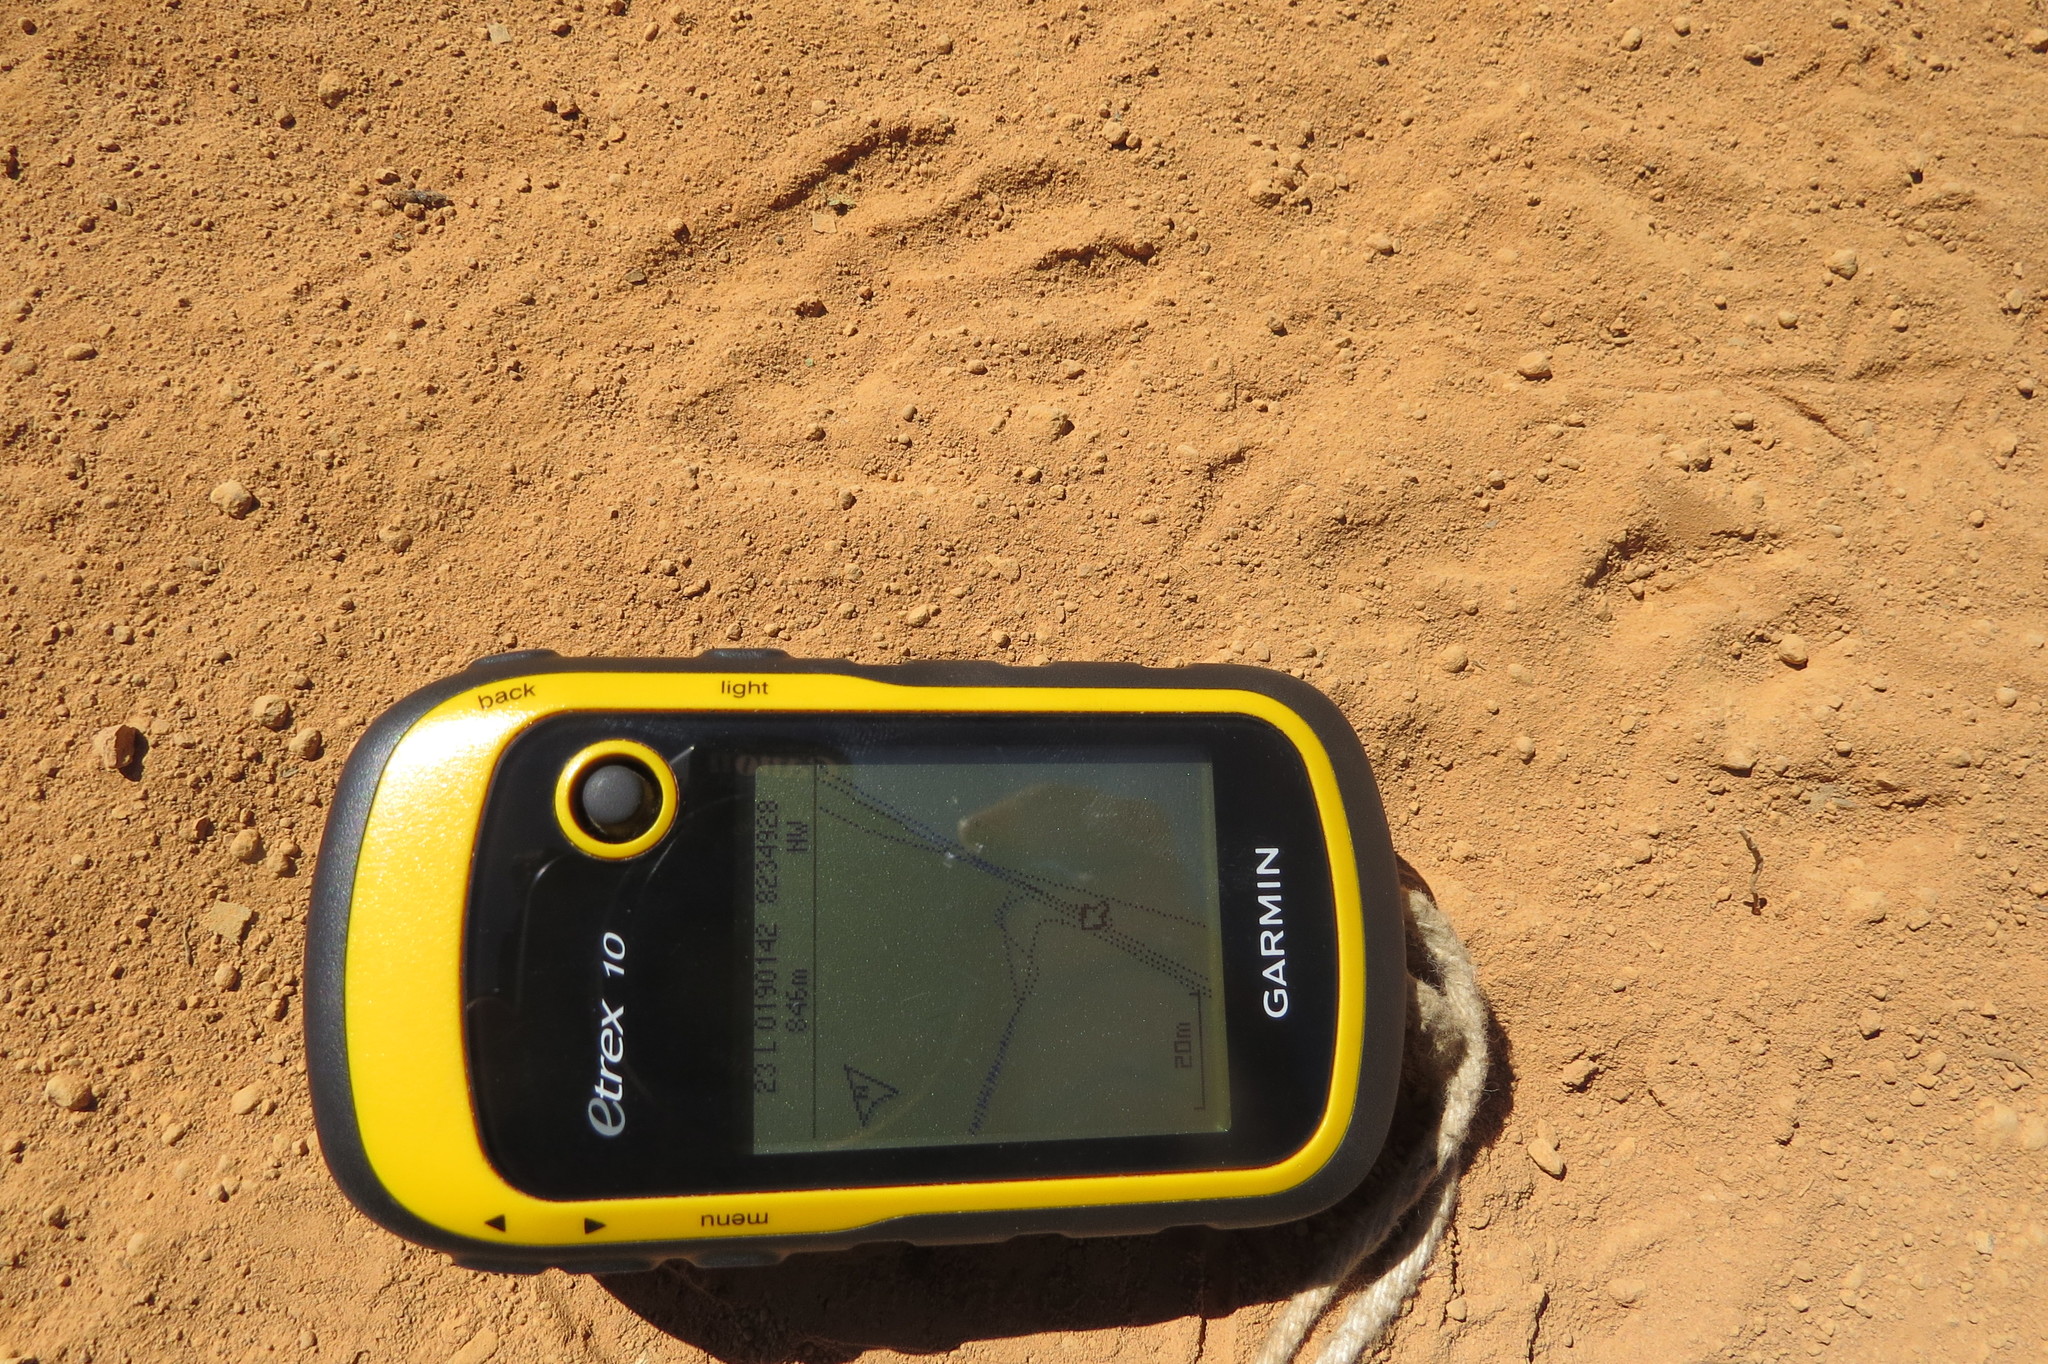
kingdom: Animalia
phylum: Chordata
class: Mammalia
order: Carnivora
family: Procyonidae
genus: Procyon
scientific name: Procyon cancrivorus
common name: Crab-eating raccoon
